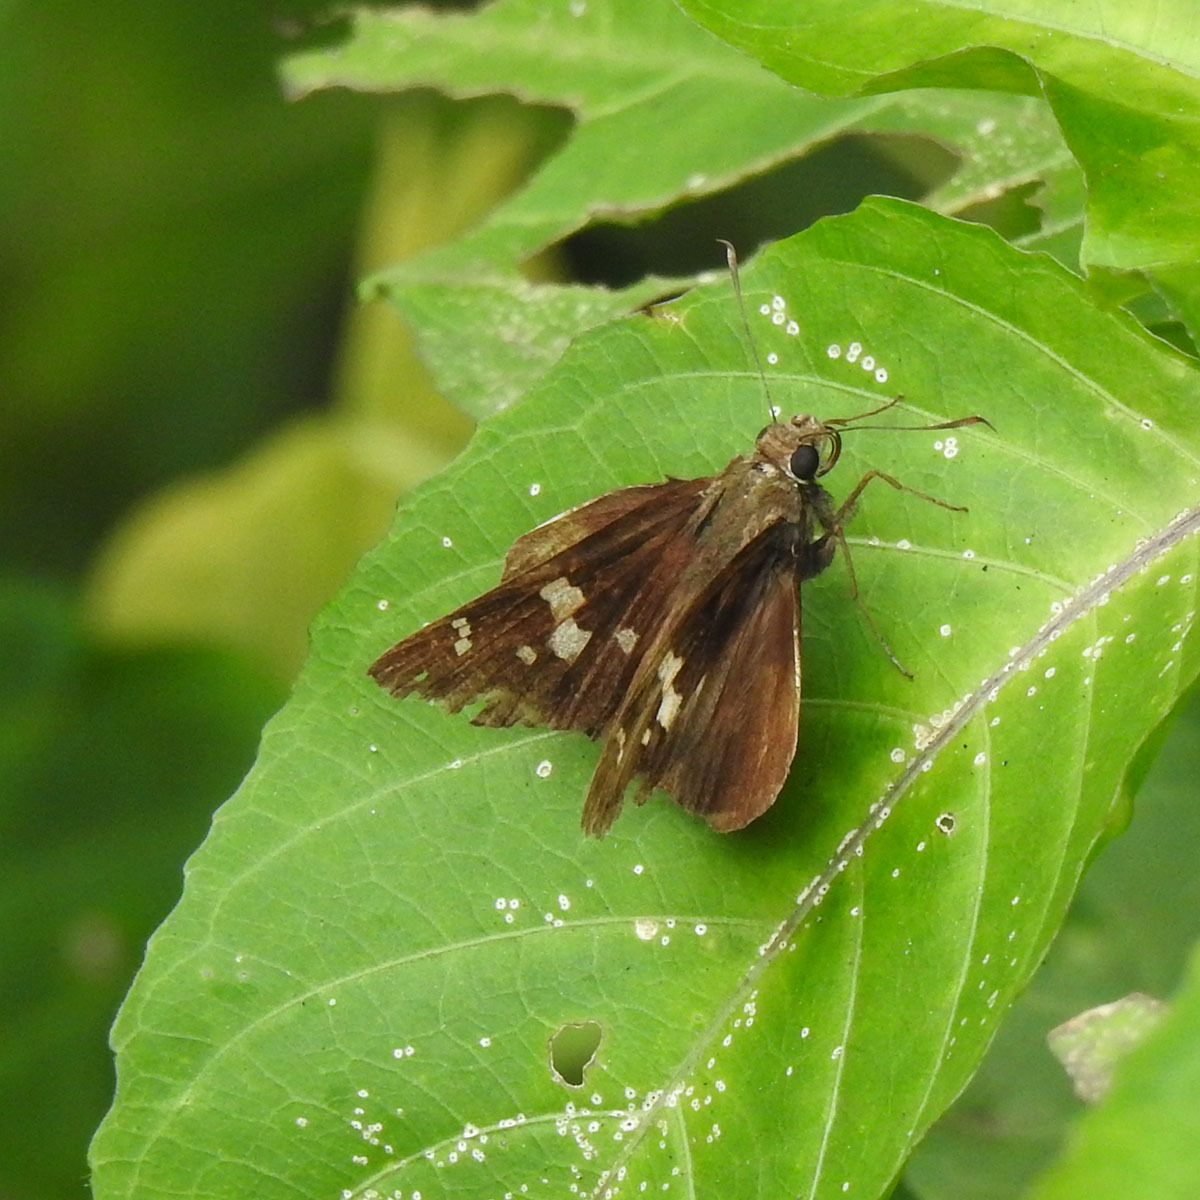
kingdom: Animalia
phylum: Arthropoda
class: Insecta
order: Lepidoptera
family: Hesperiidae
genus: Hyarotis
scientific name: Hyarotis adrastus
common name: Tree flitter
